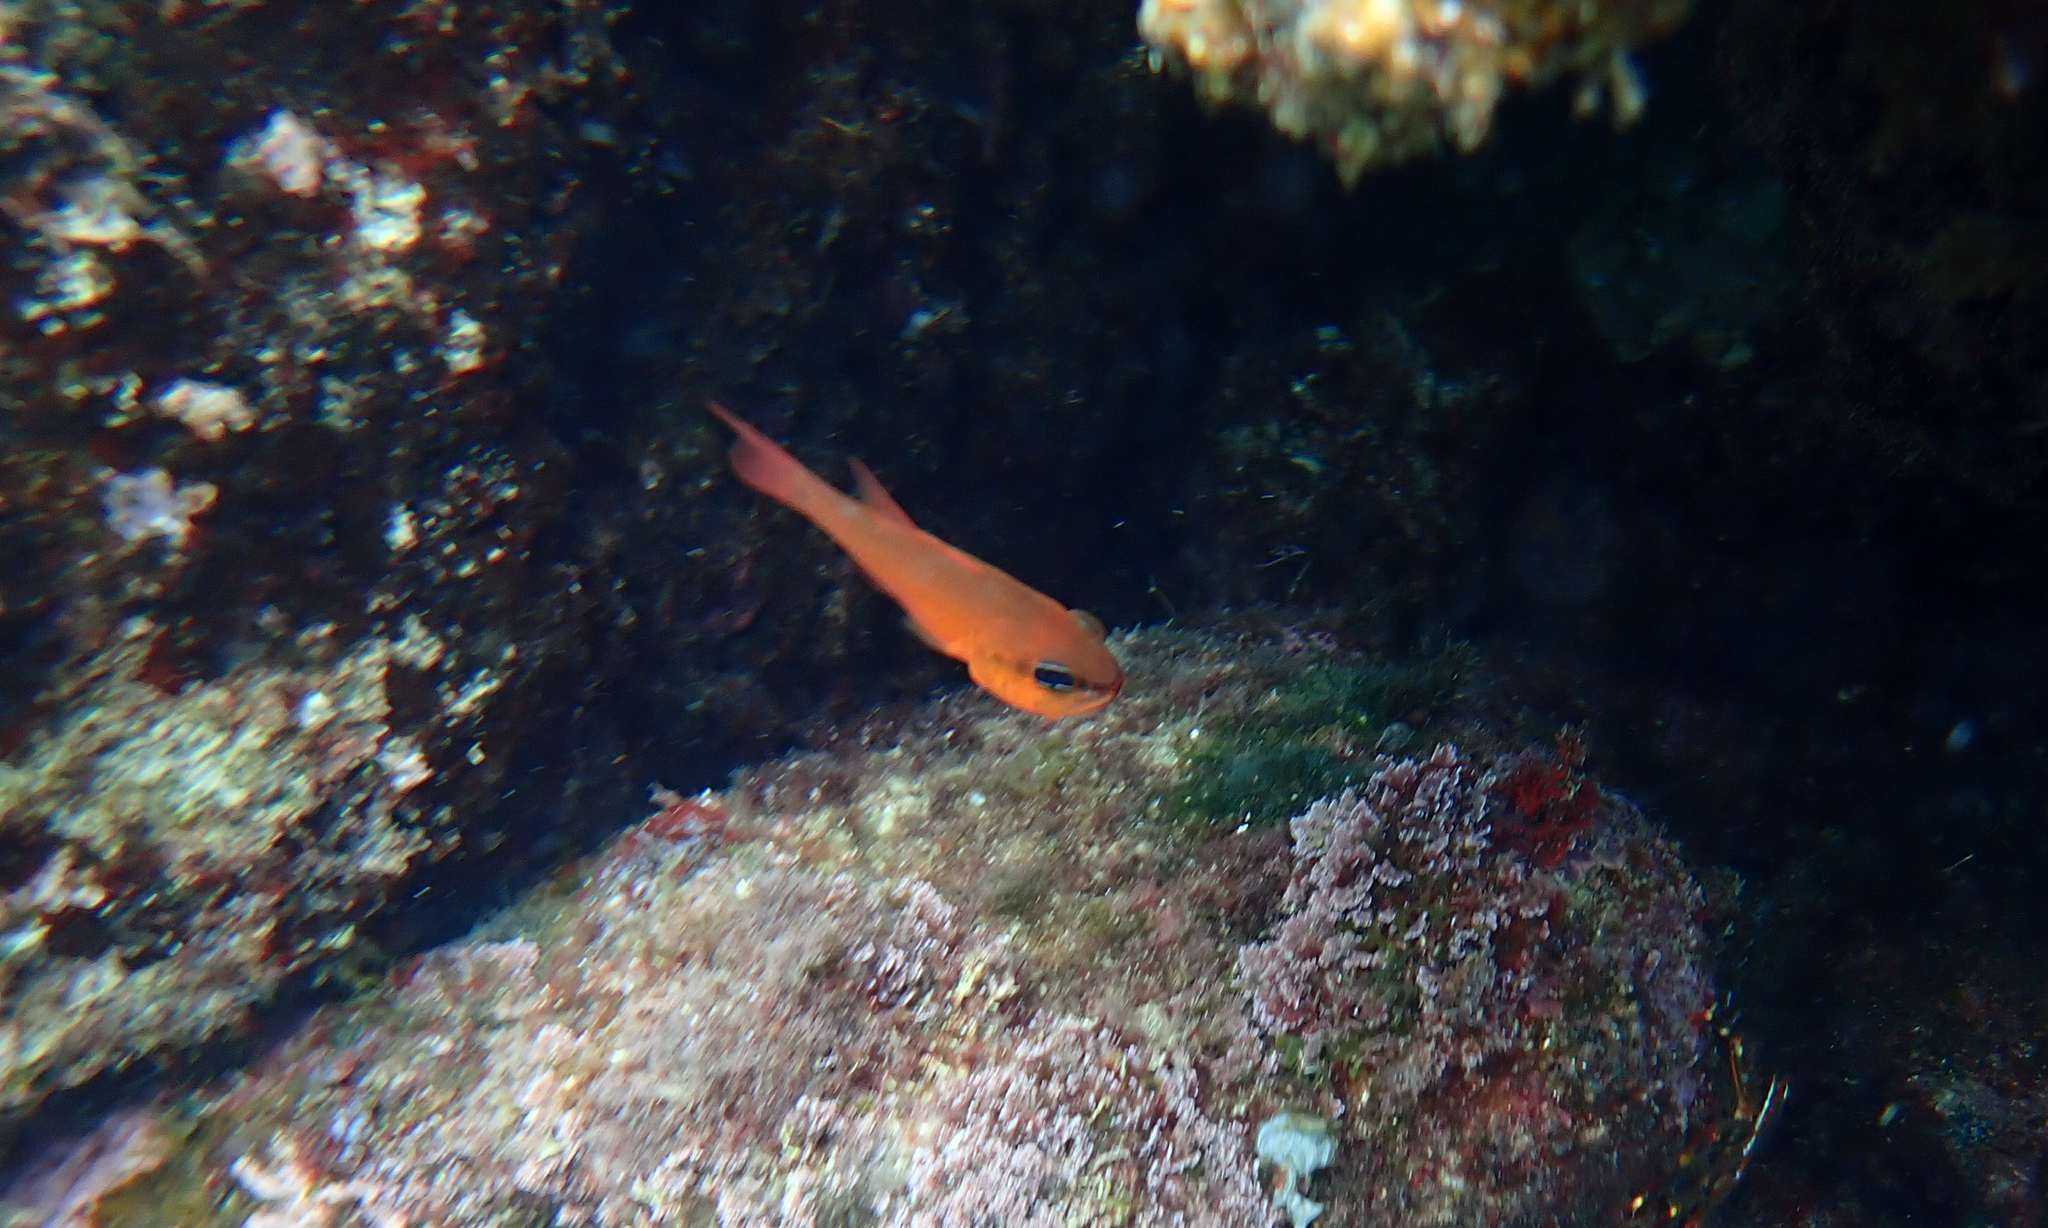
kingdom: Animalia
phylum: Chordata
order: Perciformes
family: Apogonidae
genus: Apogon
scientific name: Apogon imberbis
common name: Cardinal fish
